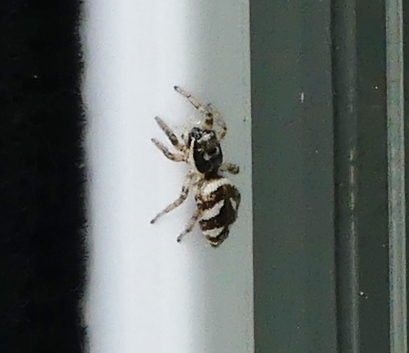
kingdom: Animalia
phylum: Arthropoda
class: Arachnida
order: Araneae
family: Salticidae
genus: Salticus
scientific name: Salticus scenicus
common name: Zebra jumper
